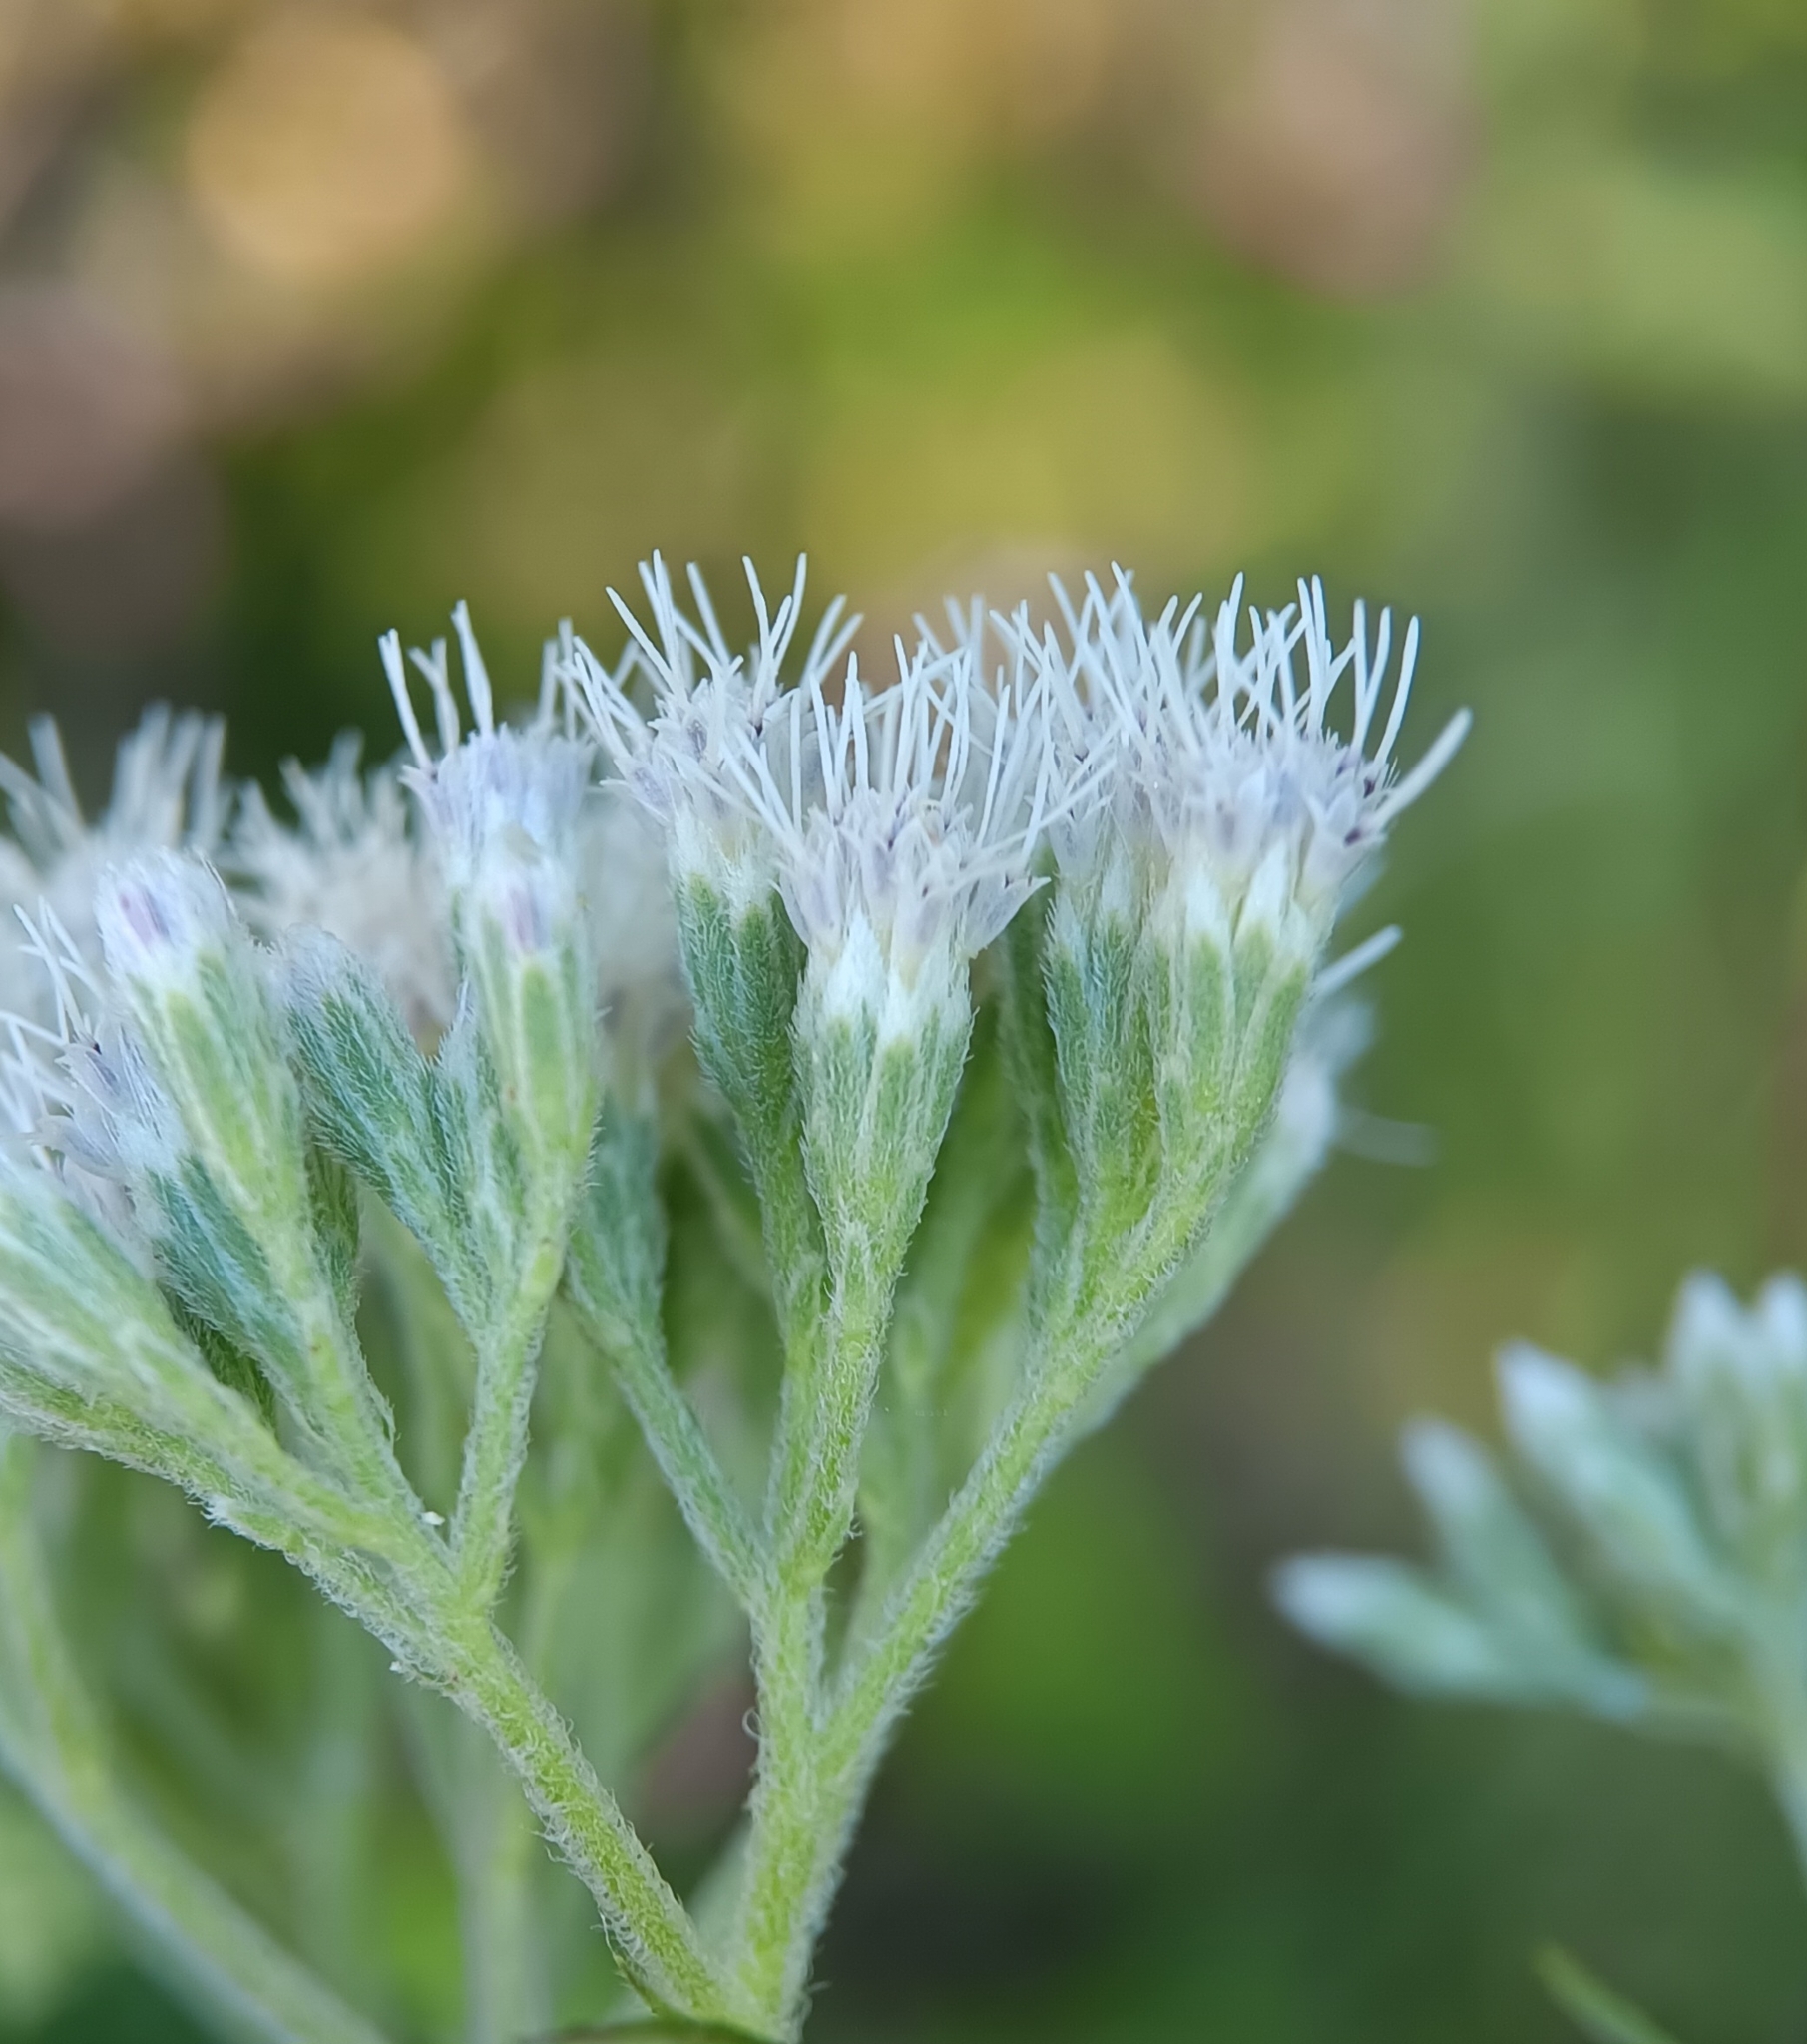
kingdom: Plantae
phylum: Tracheophyta
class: Magnoliopsida
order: Asterales
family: Asteraceae
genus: Eupatorium
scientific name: Eupatorium perfoliatum
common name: Boneset
